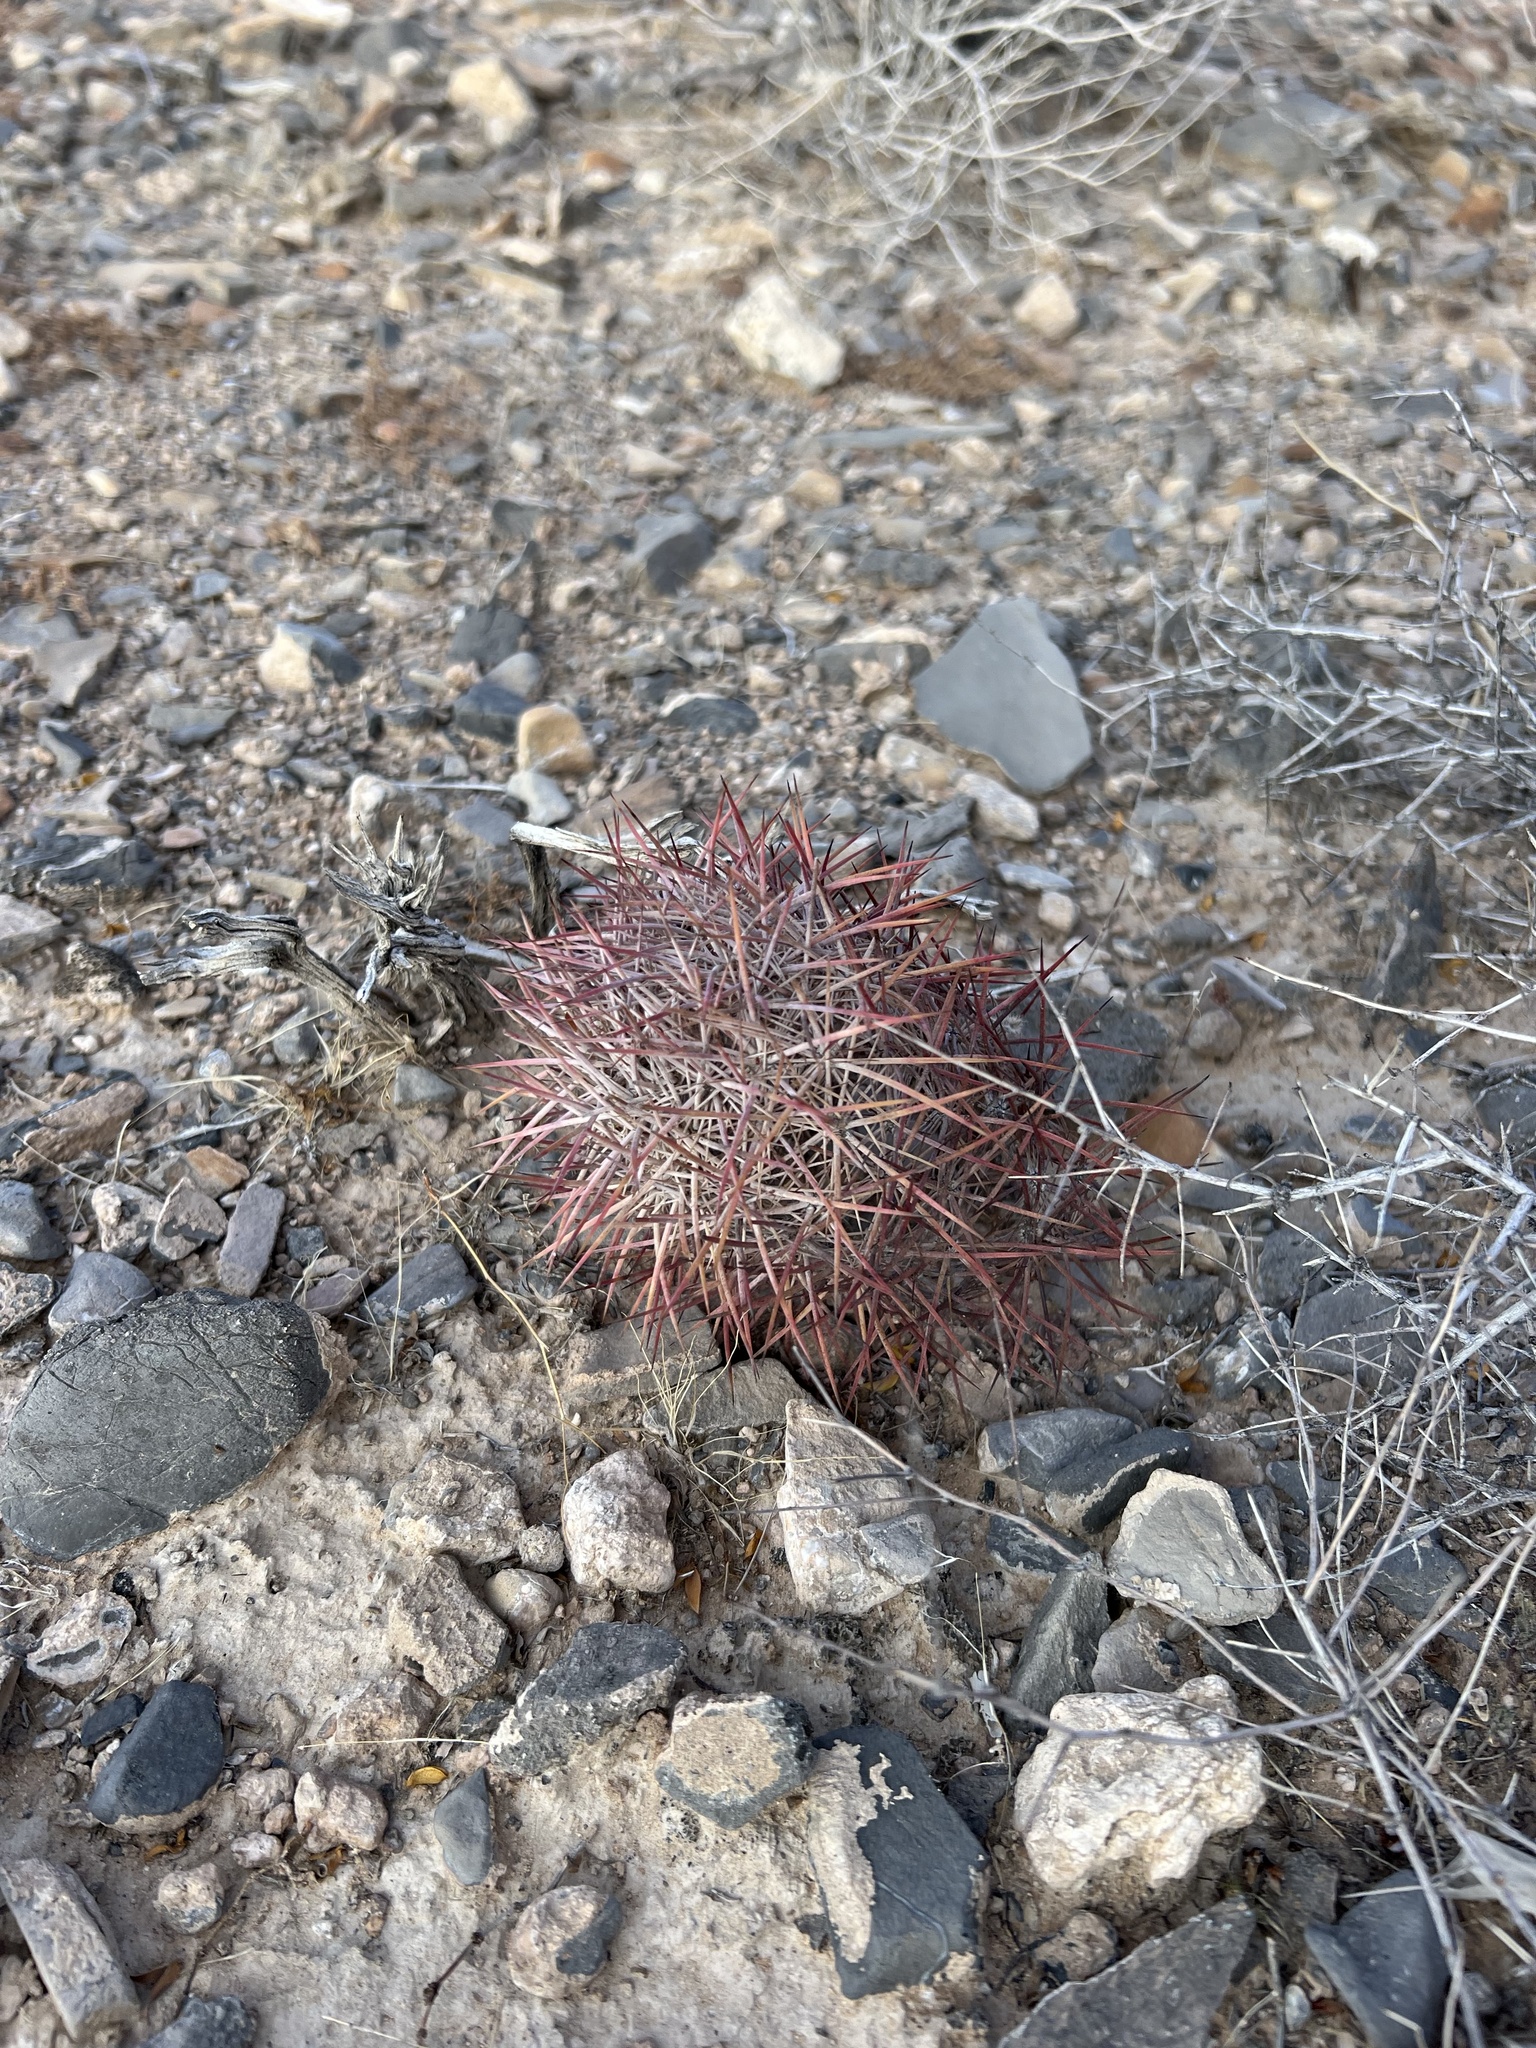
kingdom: Plantae
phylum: Tracheophyta
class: Magnoliopsida
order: Caryophyllales
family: Cactaceae
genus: Sclerocactus
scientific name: Sclerocactus johnsonii
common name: Eight-spine fishhook cactus
